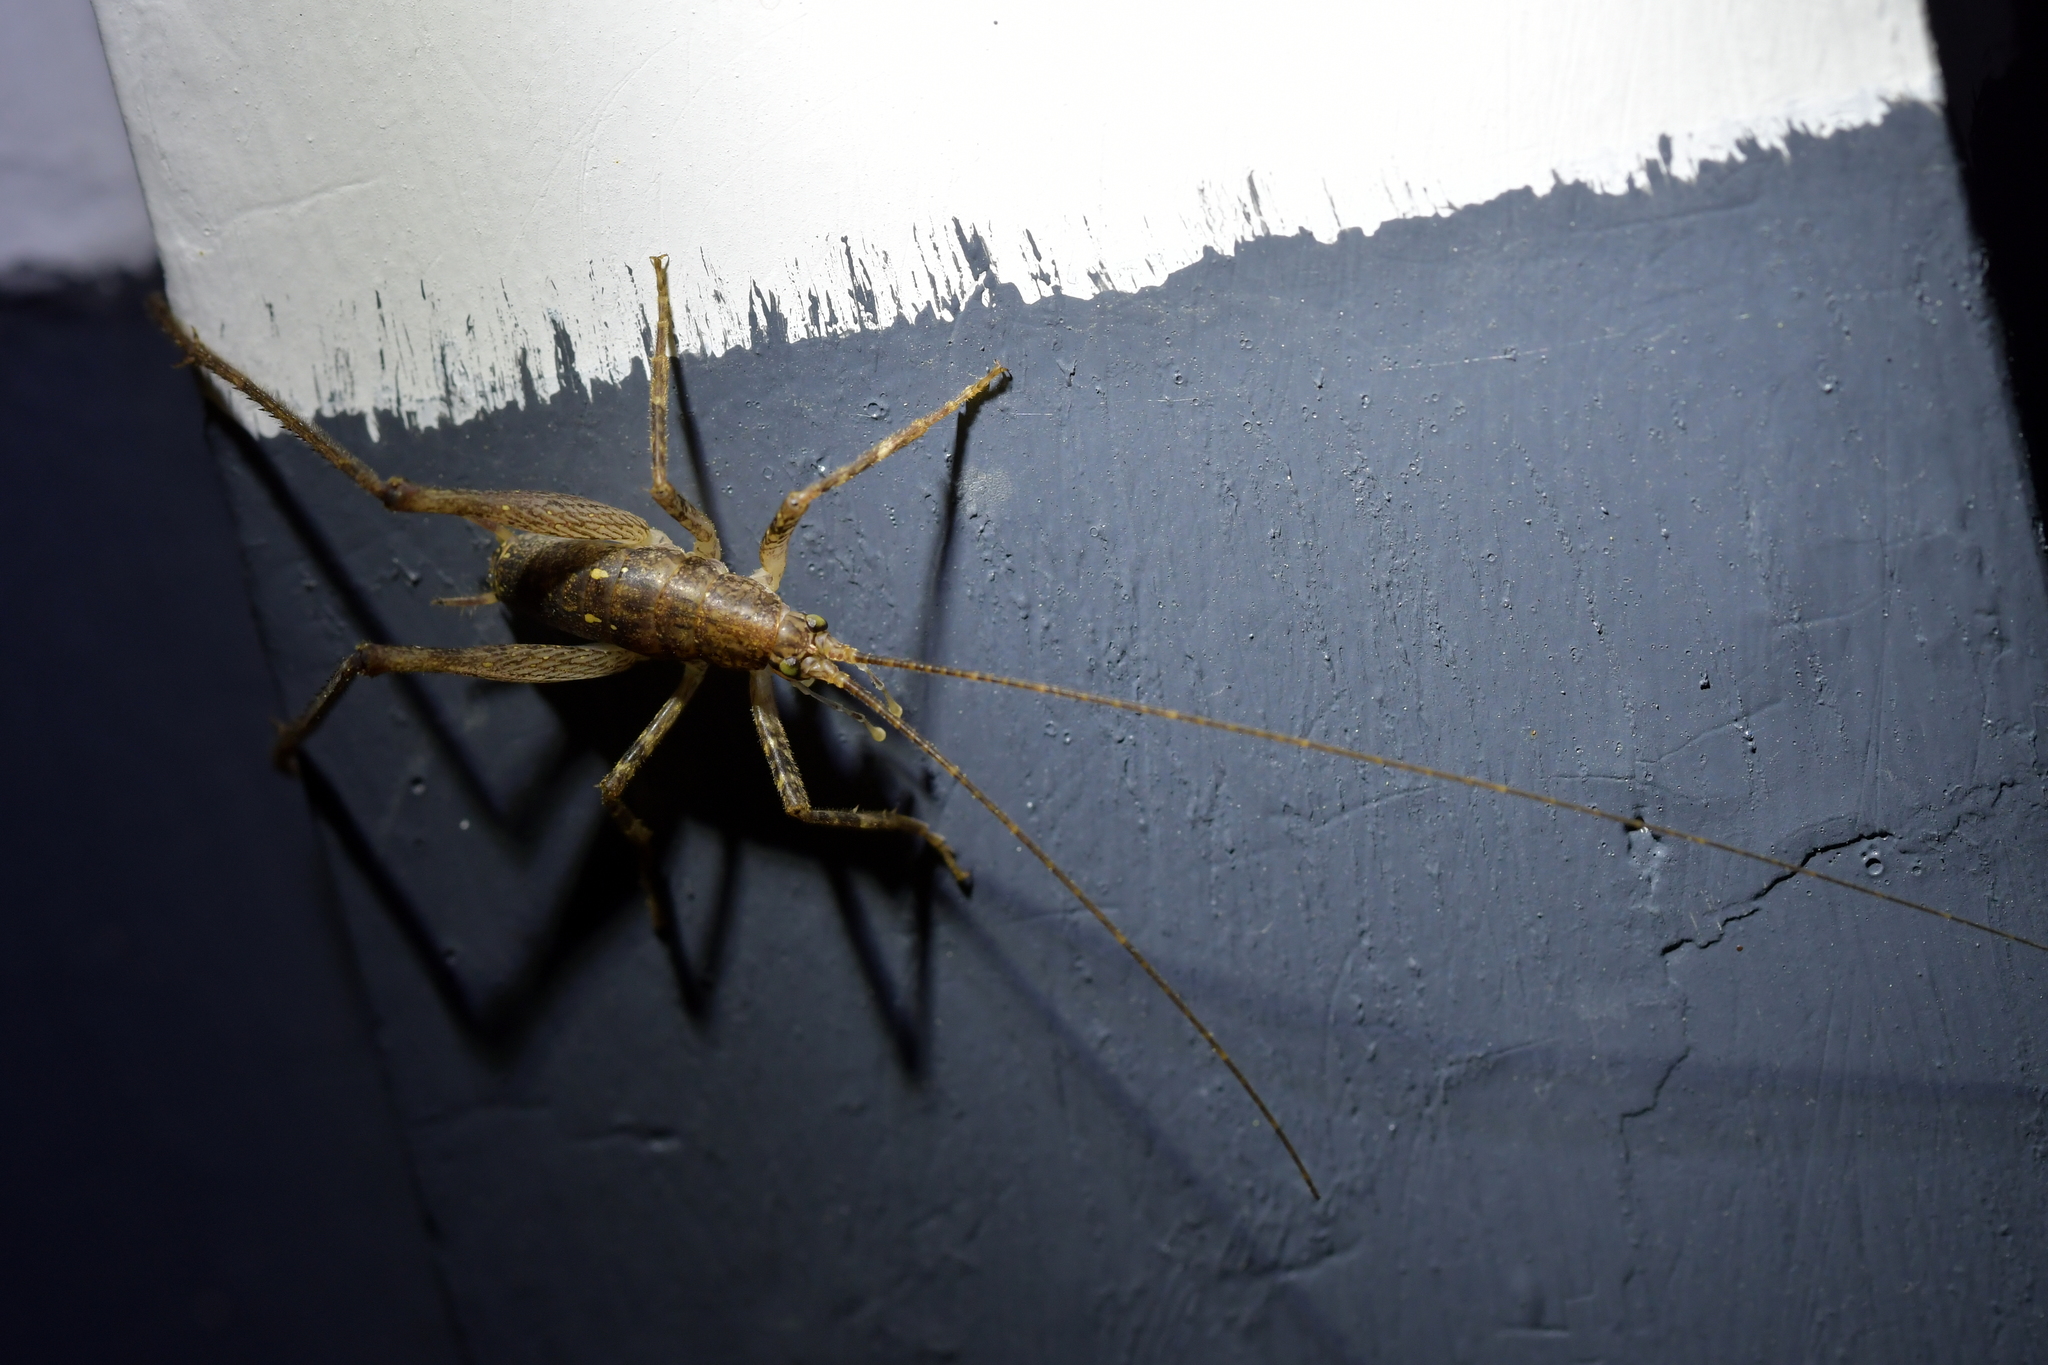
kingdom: Animalia
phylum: Arthropoda
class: Insecta
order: Orthoptera
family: Rhaphidophoridae
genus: Isoplectron
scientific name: Isoplectron armatum
